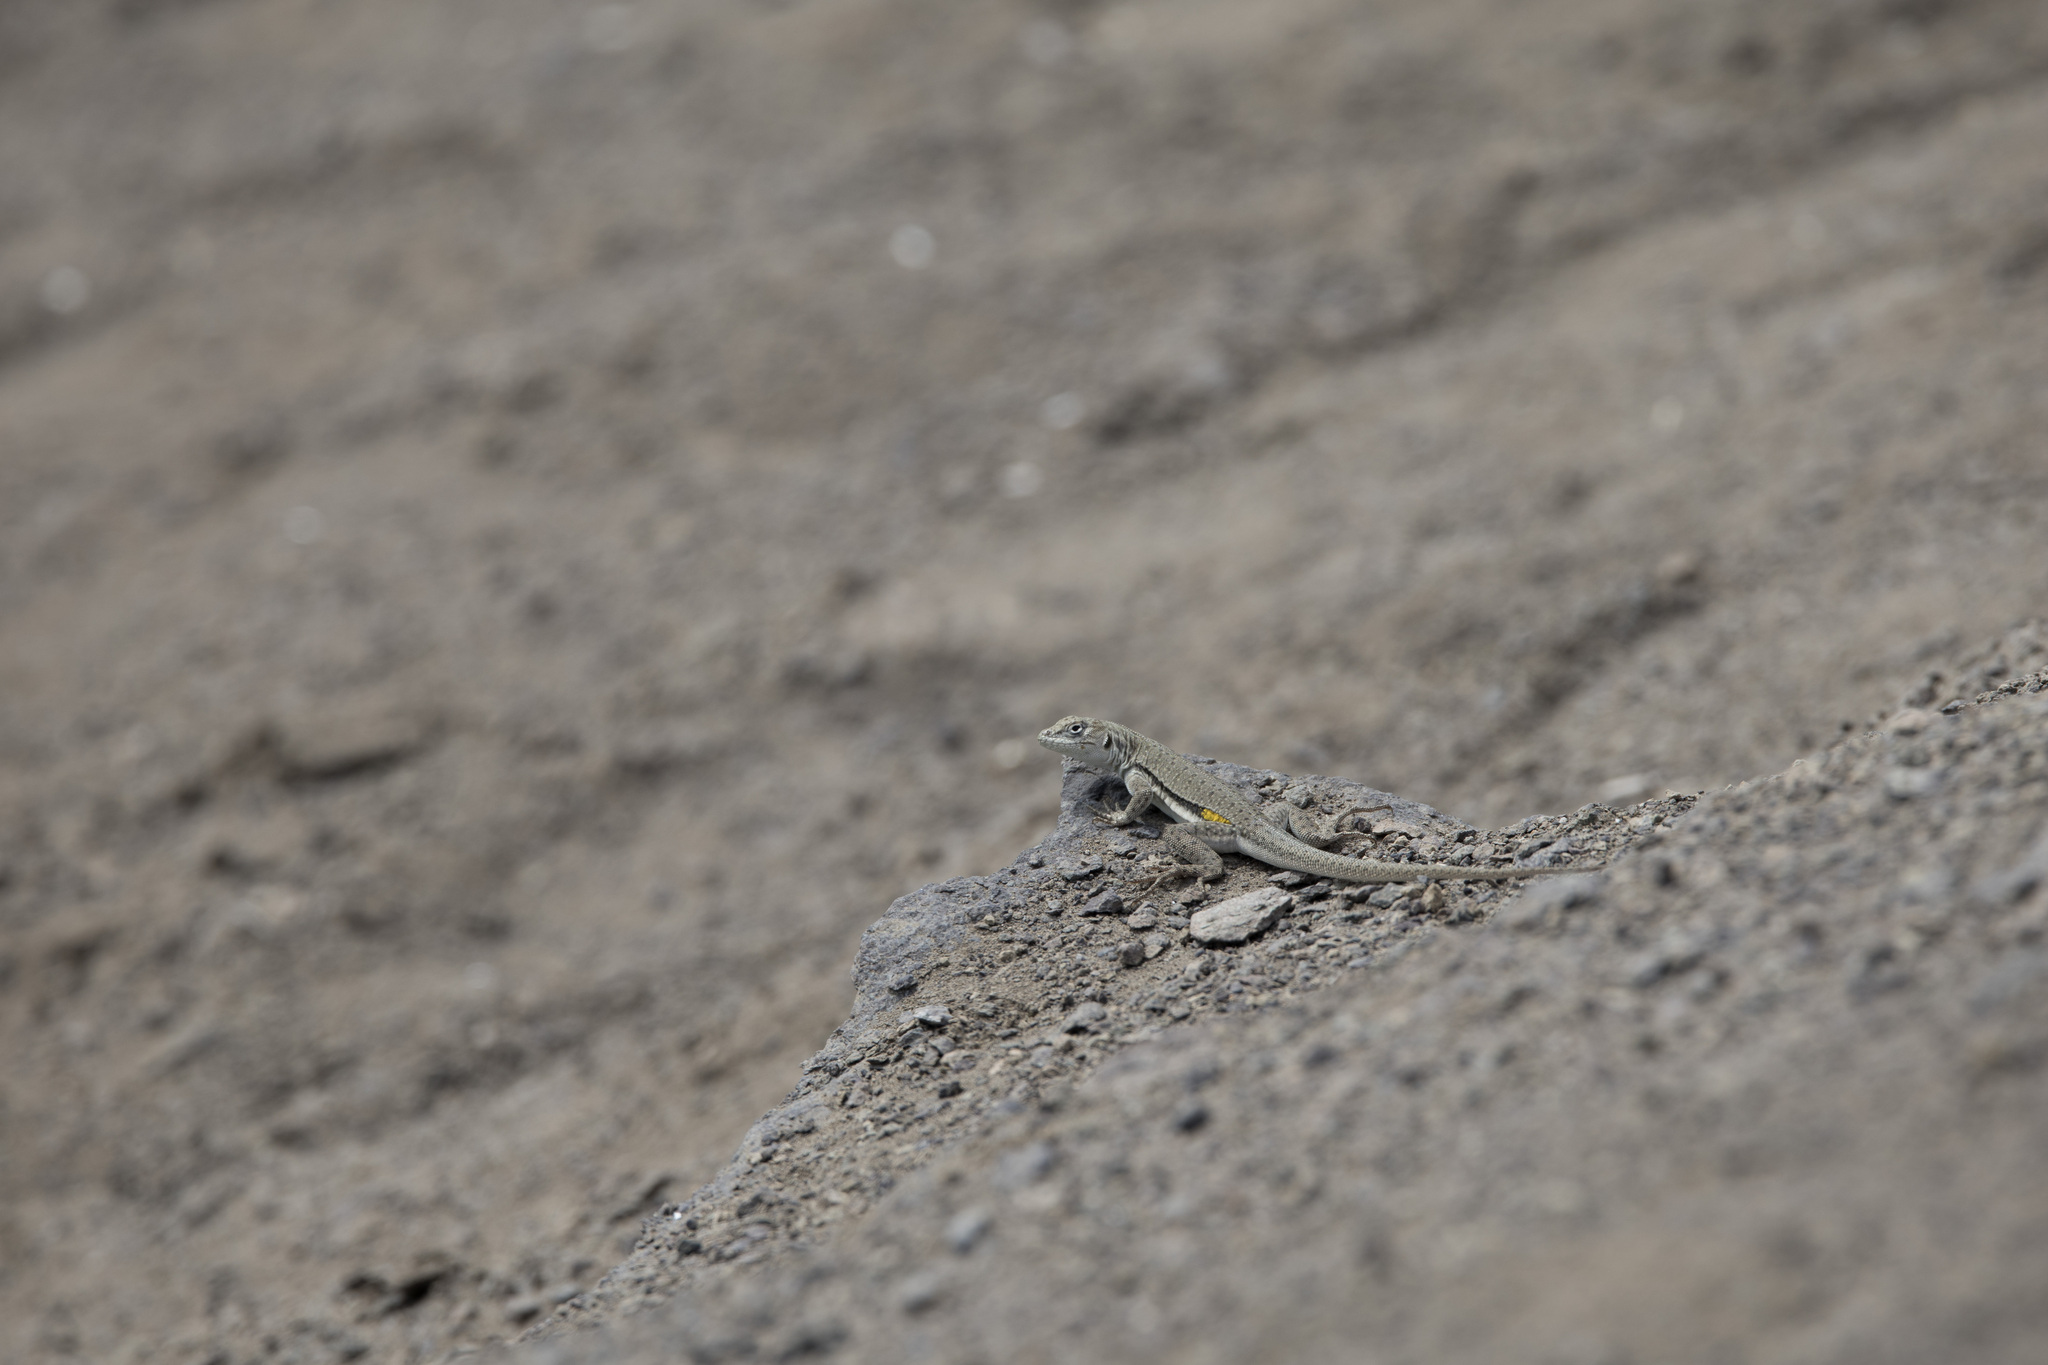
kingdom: Animalia
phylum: Chordata
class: Squamata
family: Tropiduridae
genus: Microlophus
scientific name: Microlophus peruvianus
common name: Peru pacific iguana
